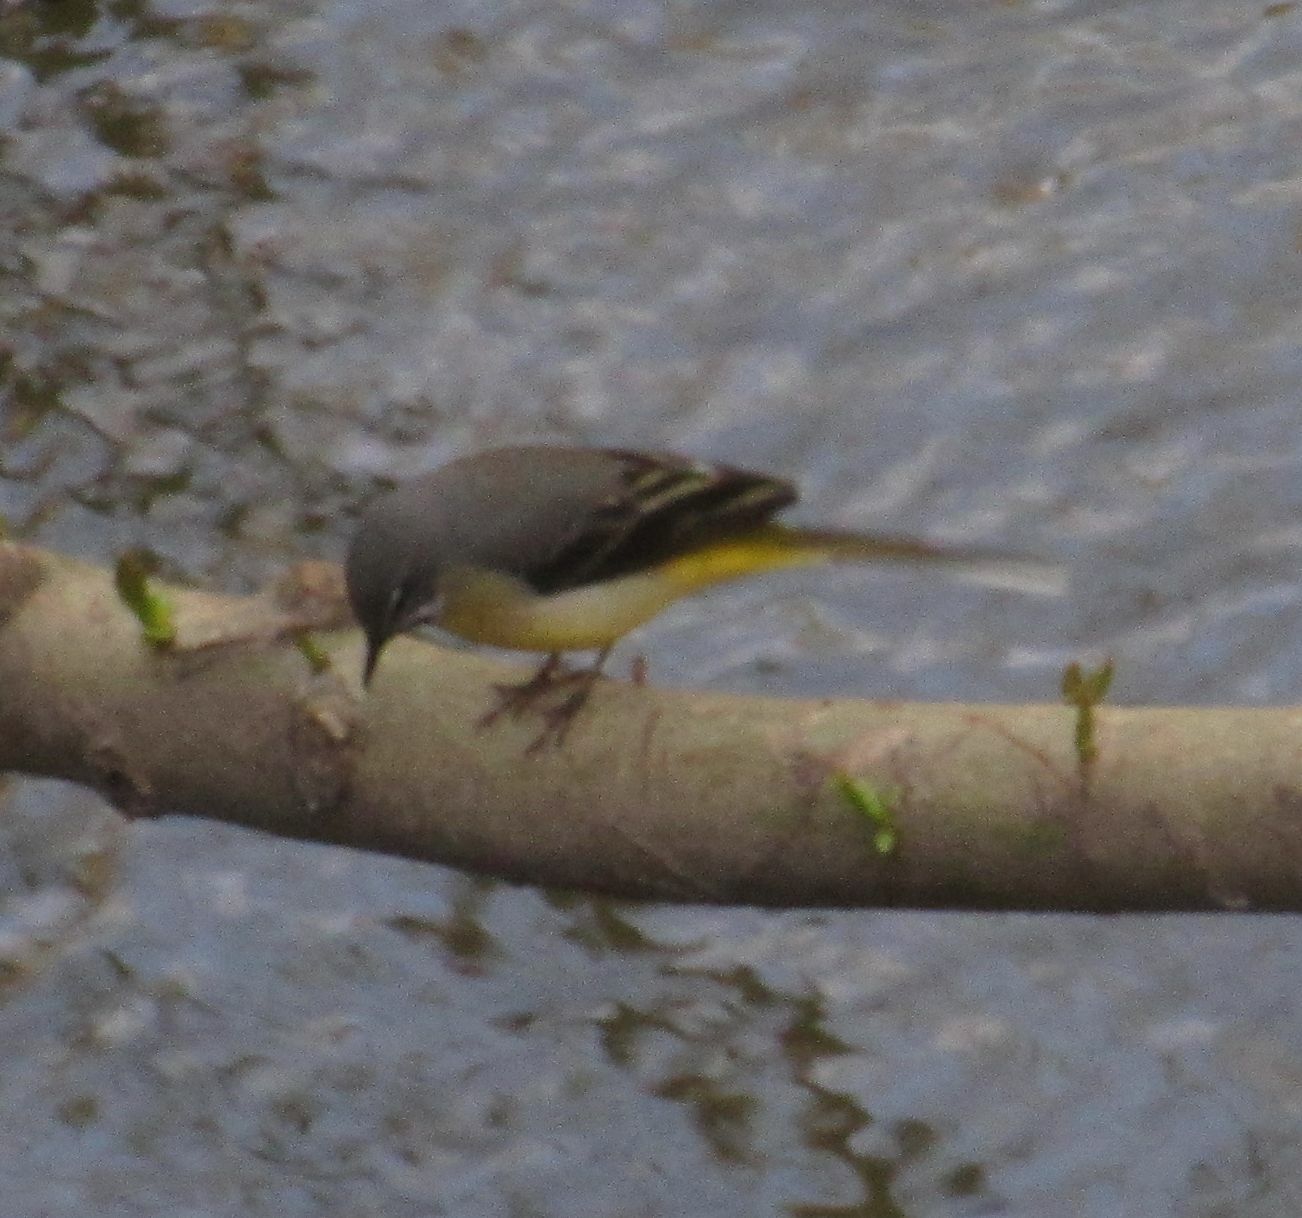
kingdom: Animalia
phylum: Chordata
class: Aves
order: Passeriformes
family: Motacillidae
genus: Motacilla
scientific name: Motacilla cinerea
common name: Grey wagtail
